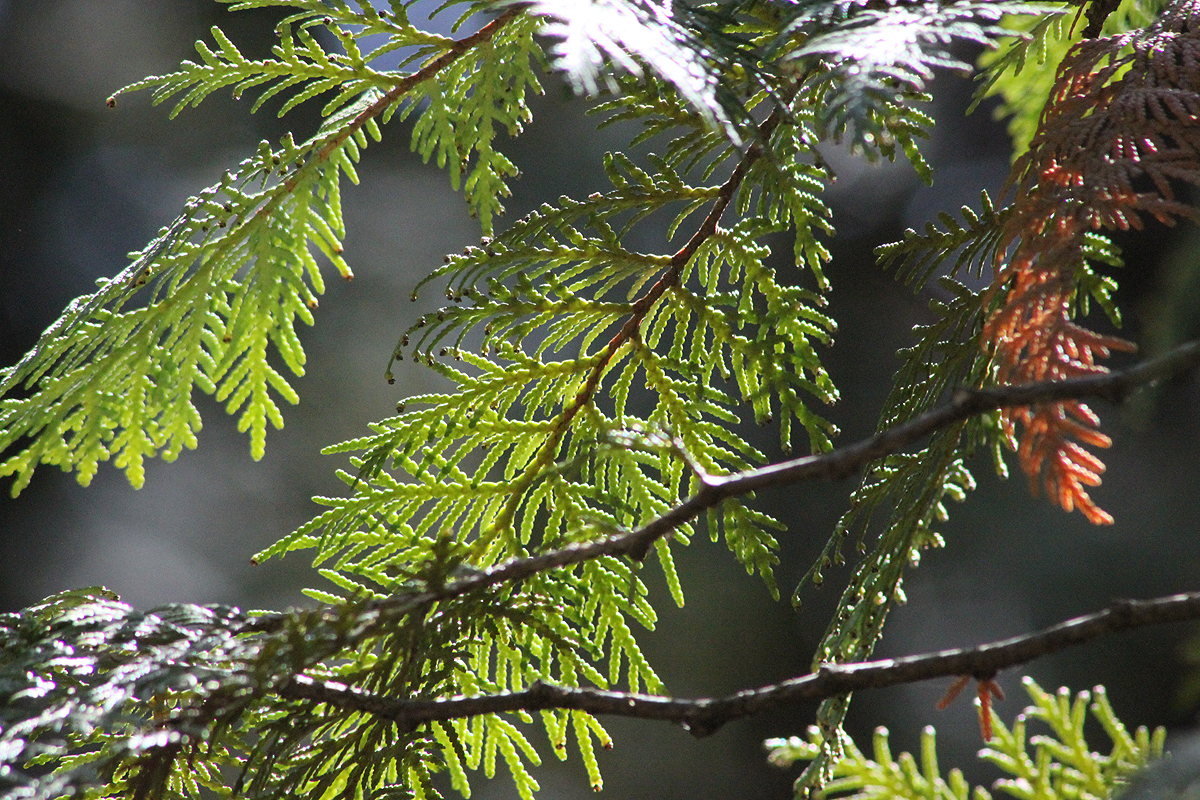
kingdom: Plantae
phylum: Tracheophyta
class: Pinopsida
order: Pinales
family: Cupressaceae
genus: Thuja
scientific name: Thuja occidentalis
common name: Northern white-cedar
